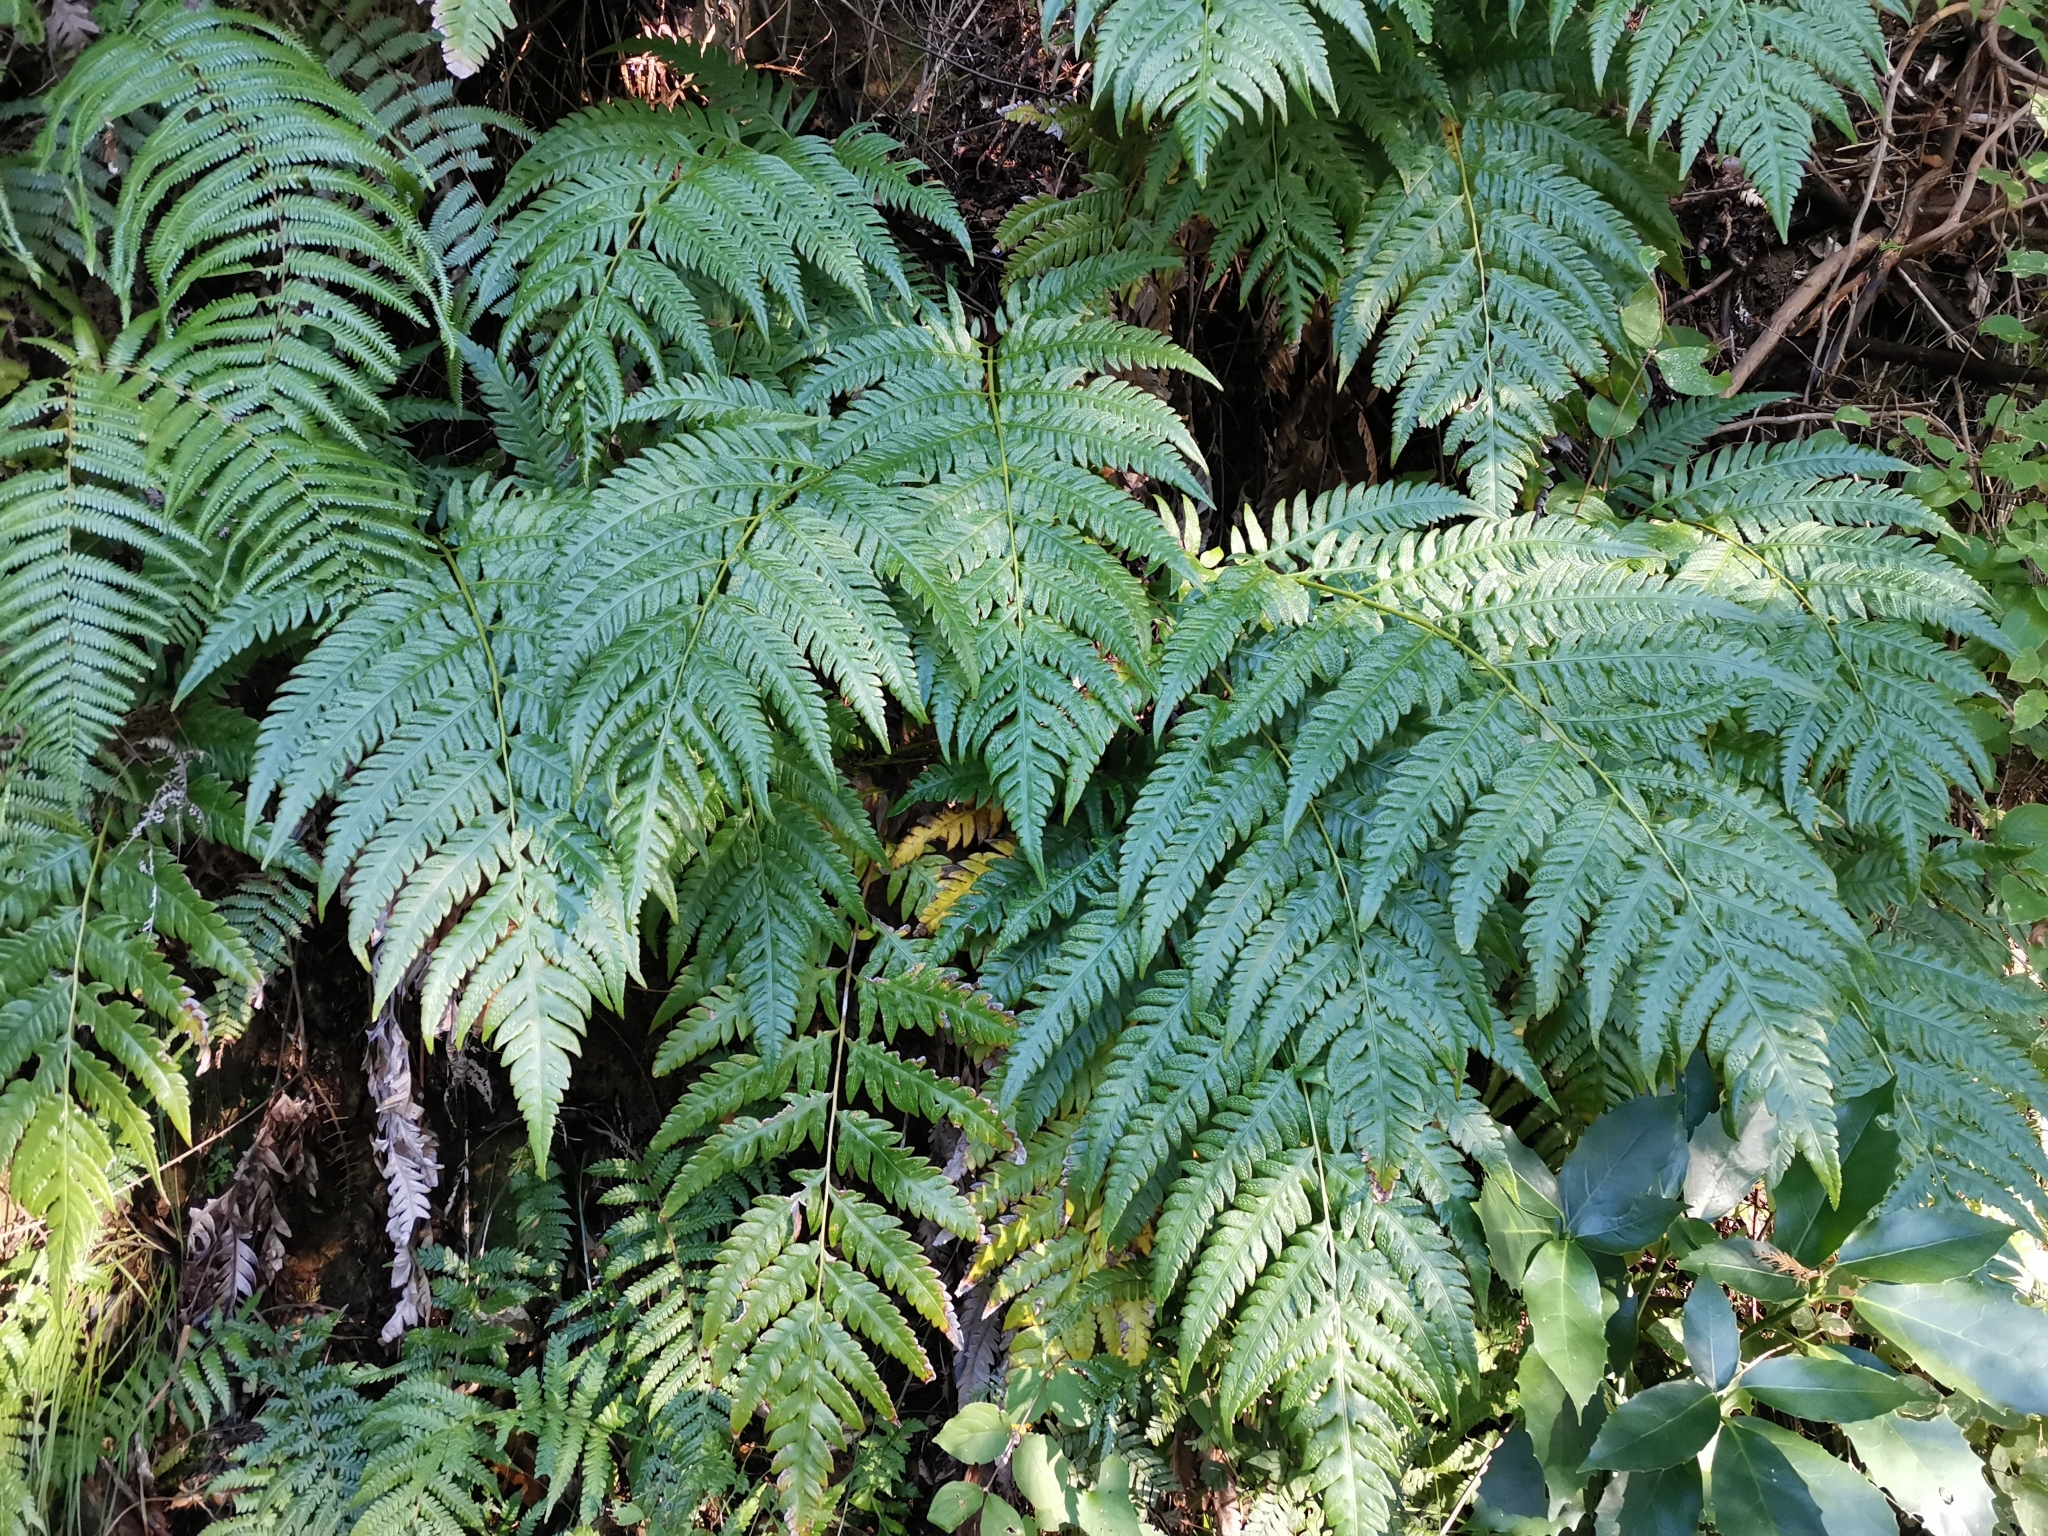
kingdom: Plantae
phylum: Tracheophyta
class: Polypodiopsida
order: Polypodiales
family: Blechnaceae
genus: Woodwardia
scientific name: Woodwardia orientalis
